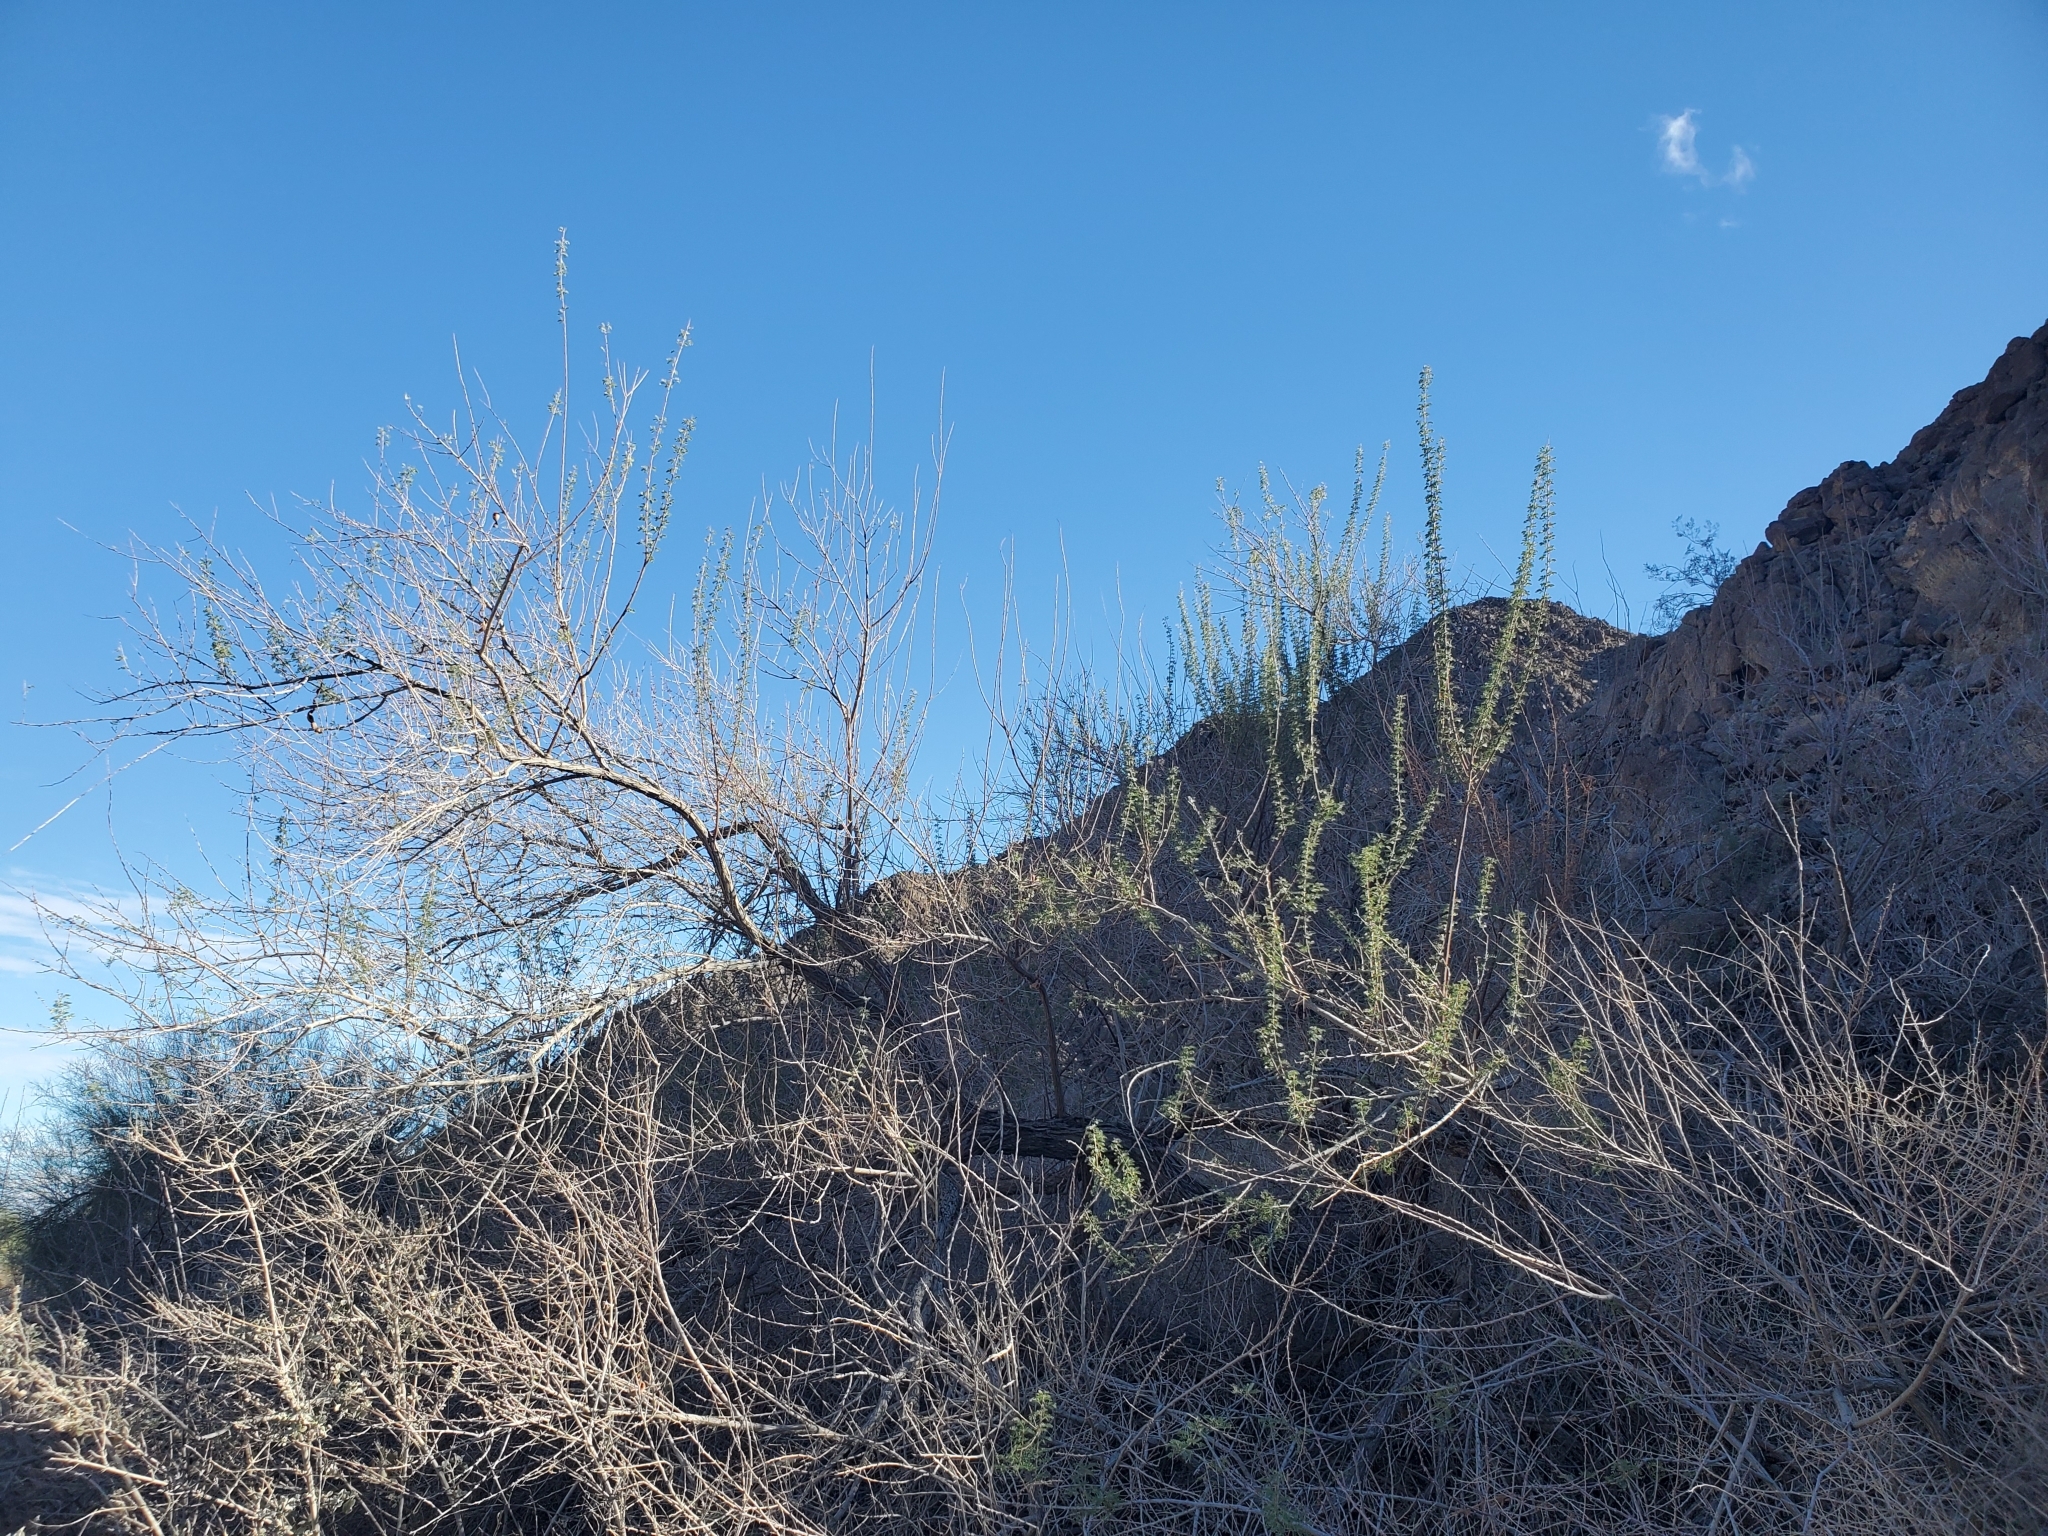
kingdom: Plantae
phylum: Tracheophyta
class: Magnoliopsida
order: Fabales
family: Fabaceae
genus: Senegalia
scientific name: Senegalia greggii
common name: Texas-mimosa
